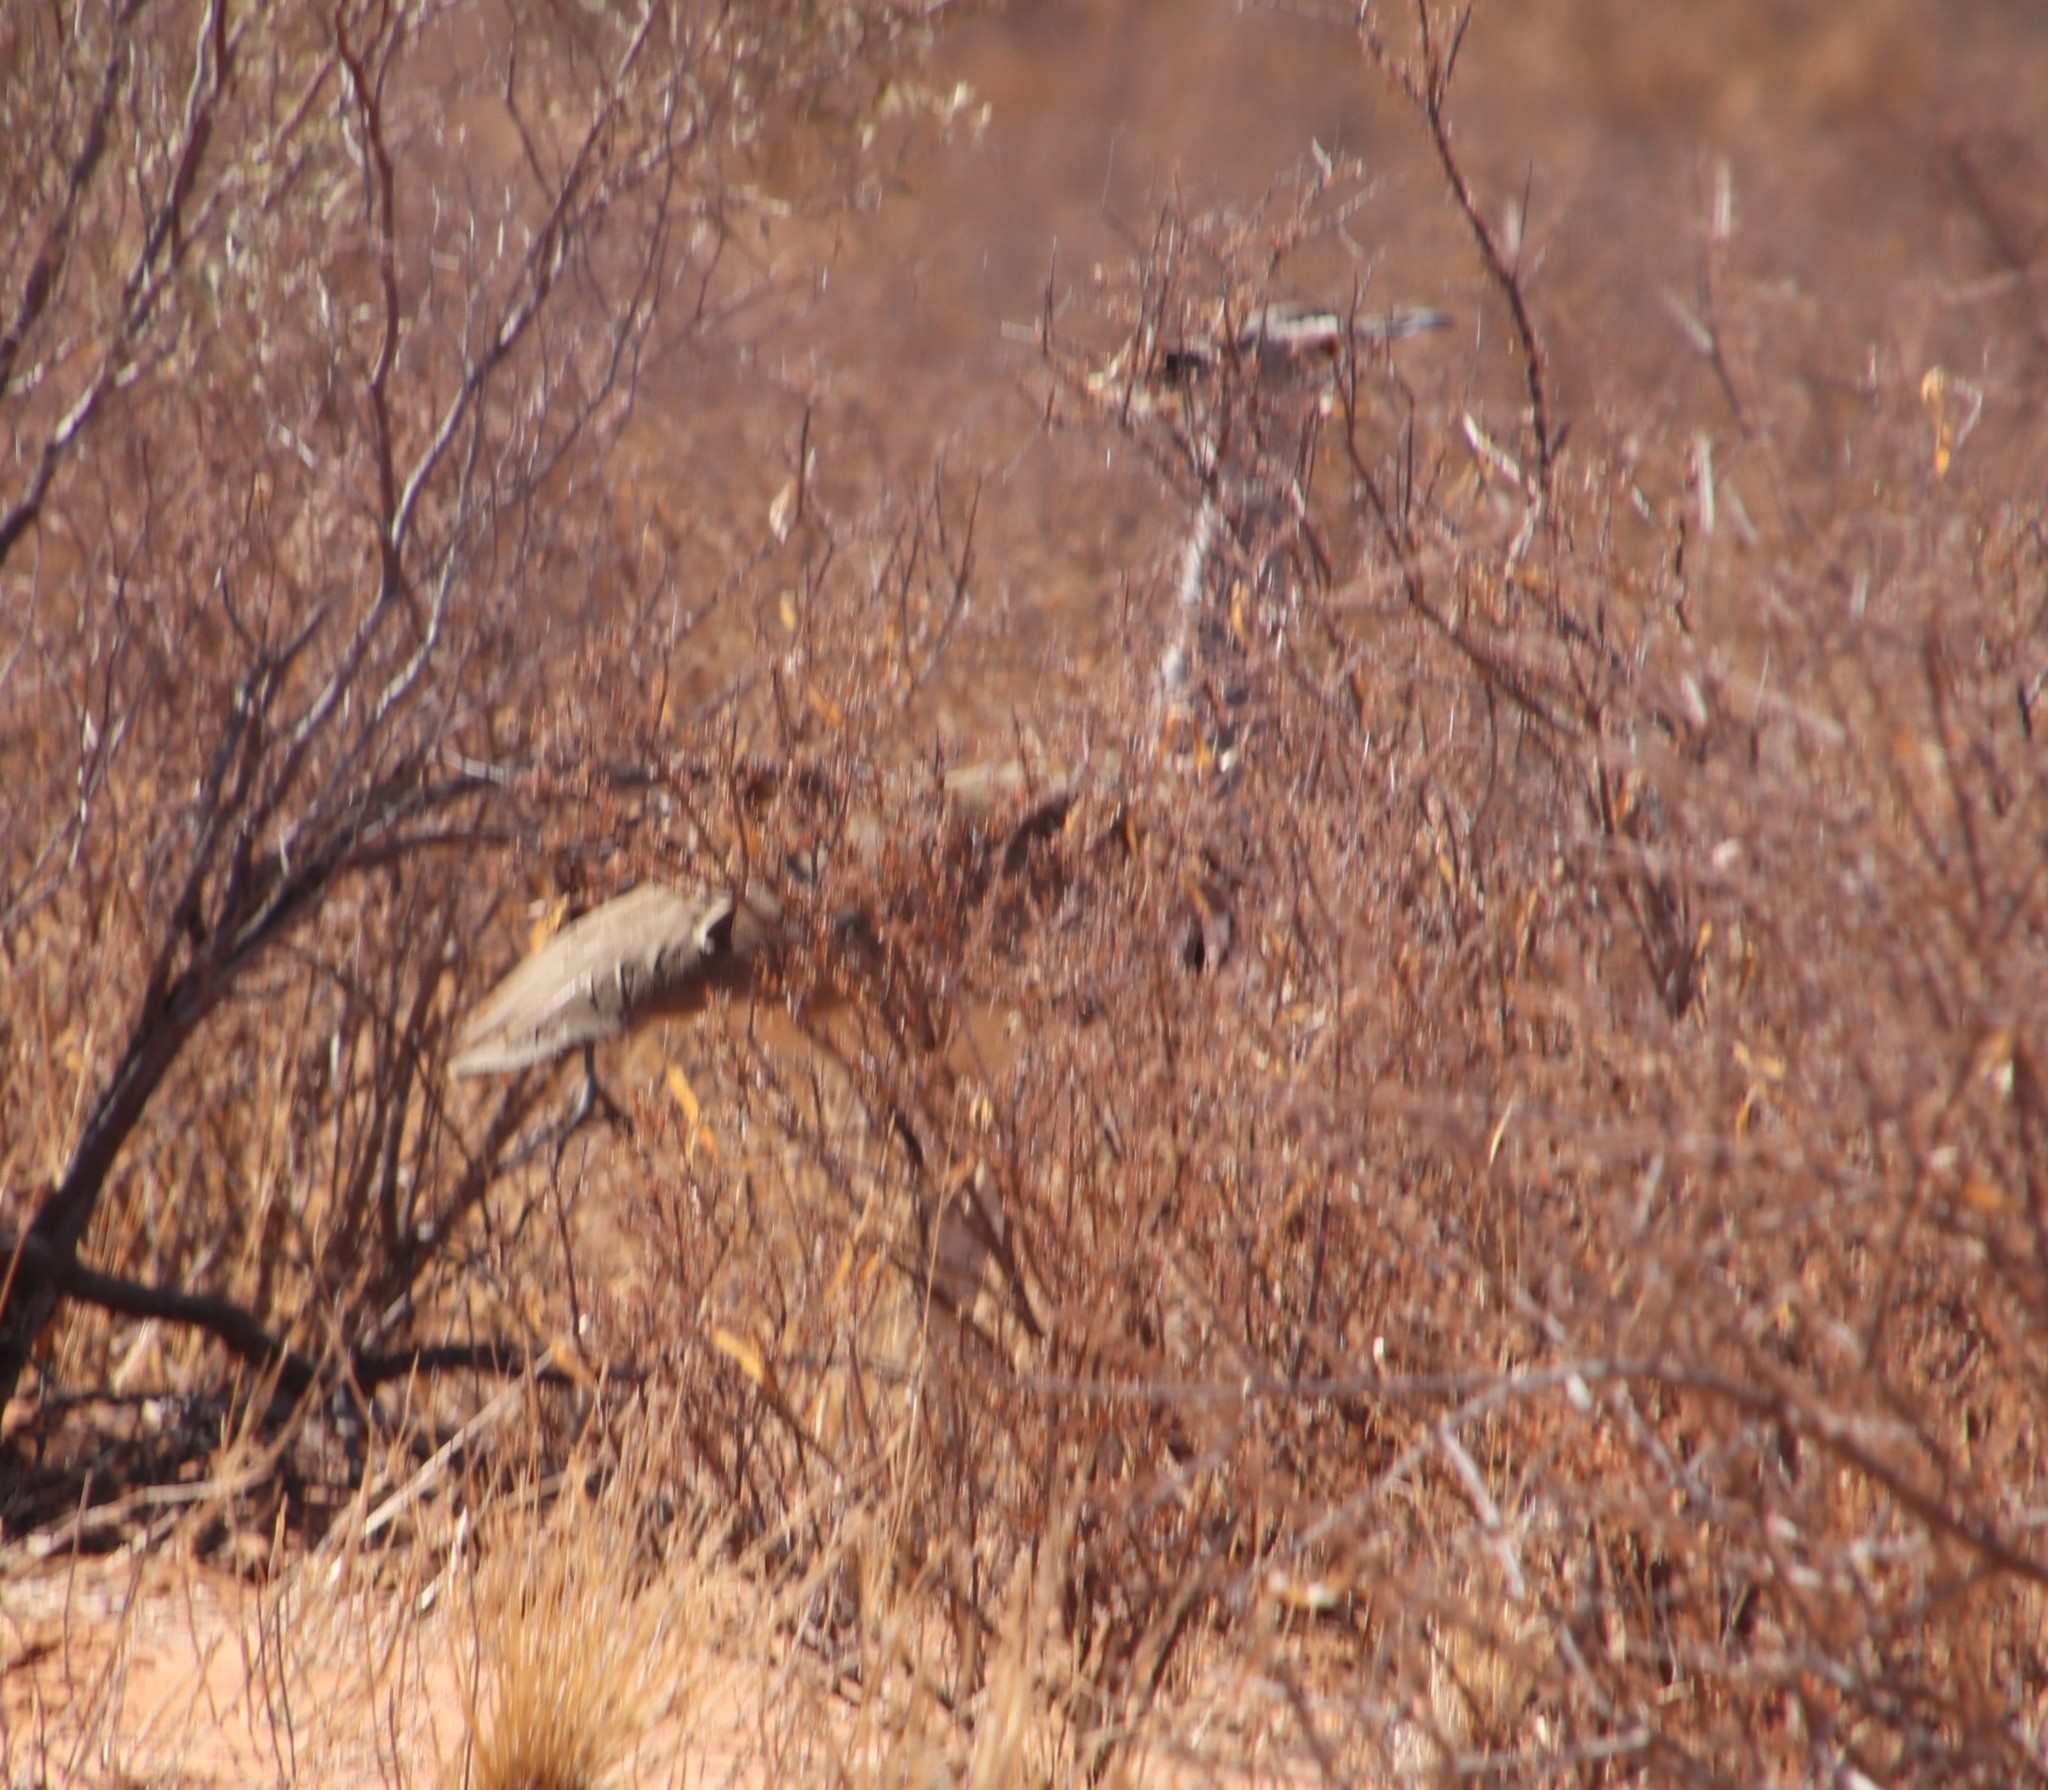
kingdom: Animalia
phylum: Chordata
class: Aves
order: Otidiformes
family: Otididae
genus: Ardeotis
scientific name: Ardeotis kori
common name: Kori bustard
